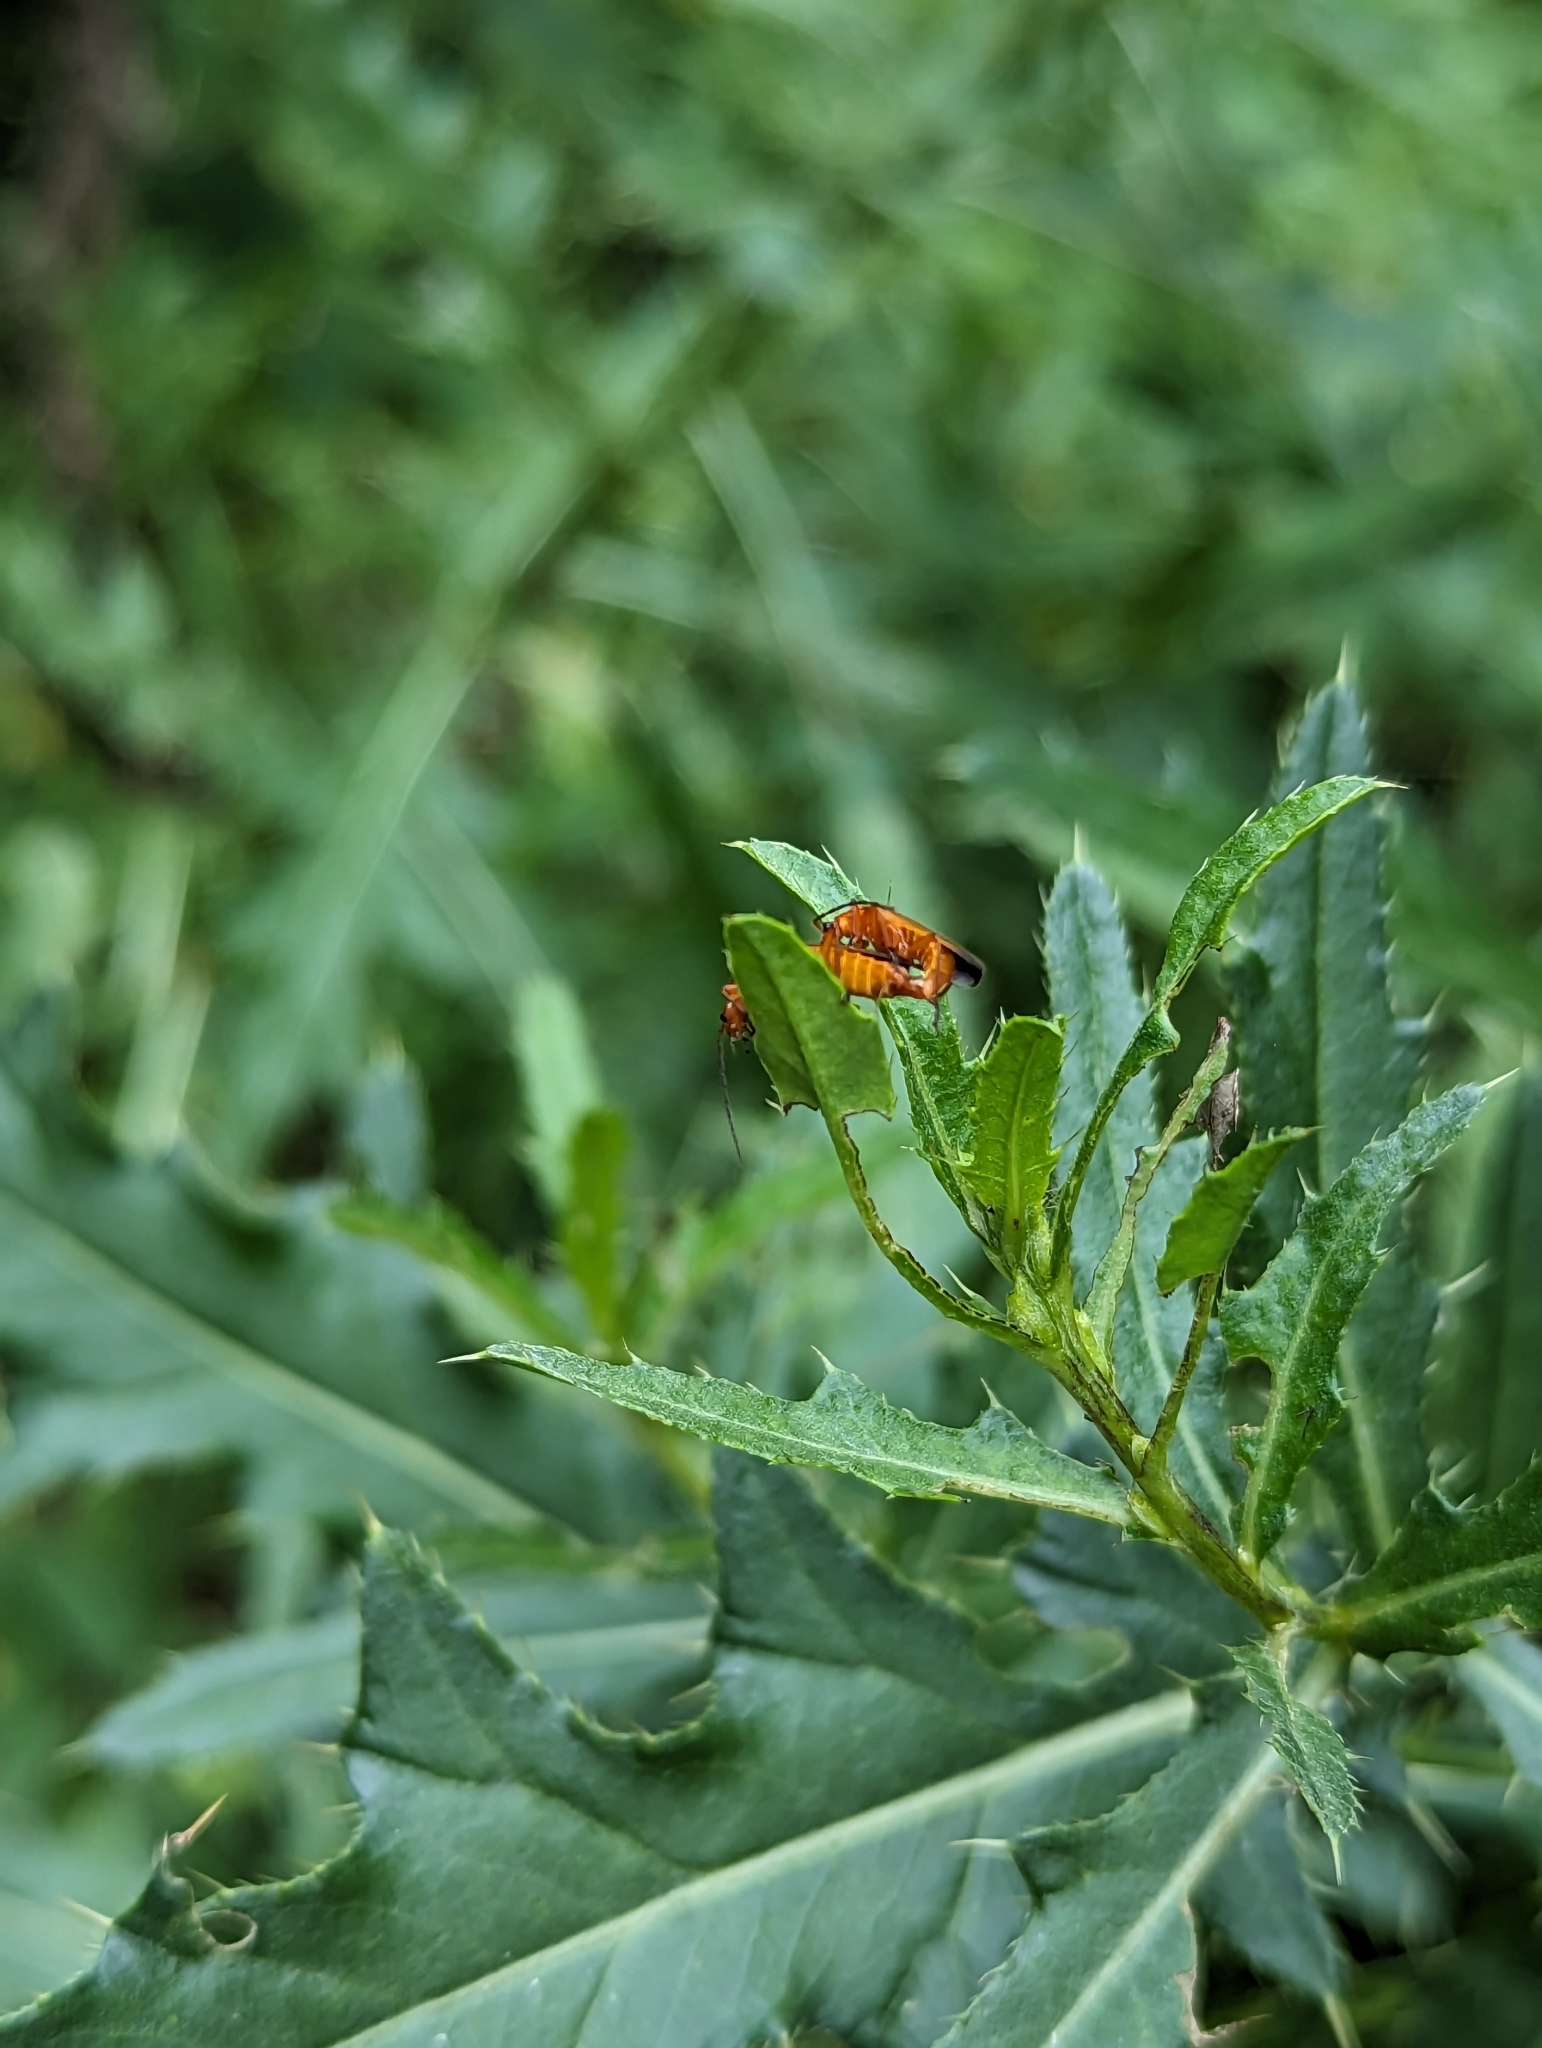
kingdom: Animalia
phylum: Arthropoda
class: Insecta
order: Coleoptera
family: Cantharidae
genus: Rhagonycha
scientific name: Rhagonycha fulva
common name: Common red soldier beetle
